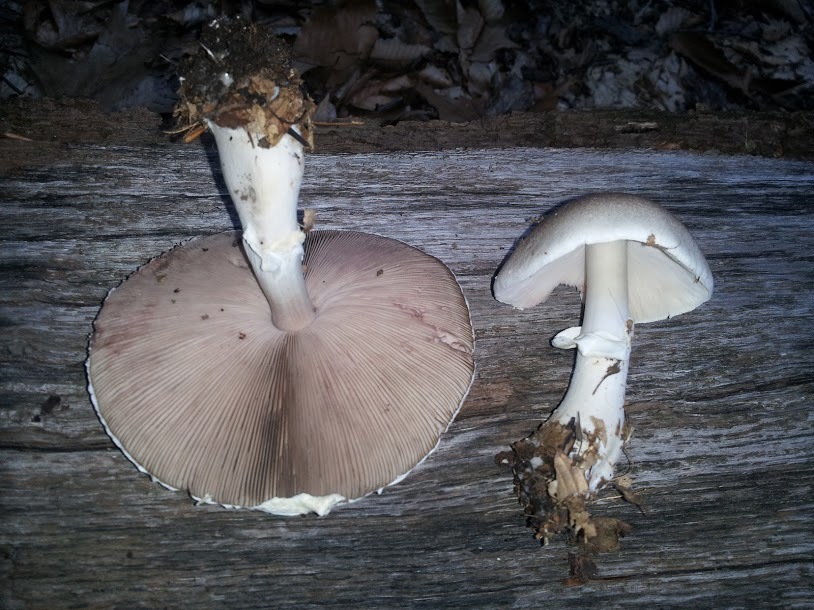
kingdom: Fungi
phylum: Basidiomycota
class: Agaricomycetes
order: Agaricales
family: Agaricaceae
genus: Agaricus
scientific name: Agaricus placomyces
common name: Inky mushroom
